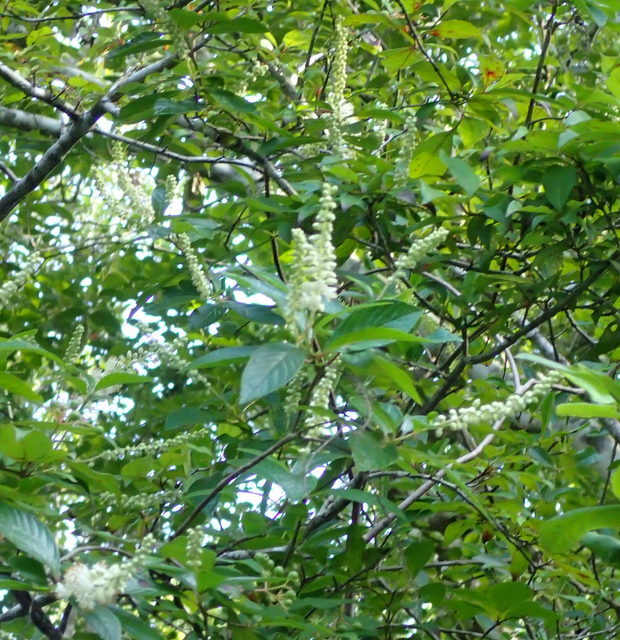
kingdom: Plantae
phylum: Tracheophyta
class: Magnoliopsida
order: Ericales
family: Clethraceae
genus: Clethra
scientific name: Clethra alnifolia
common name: Sweet pepperbush
